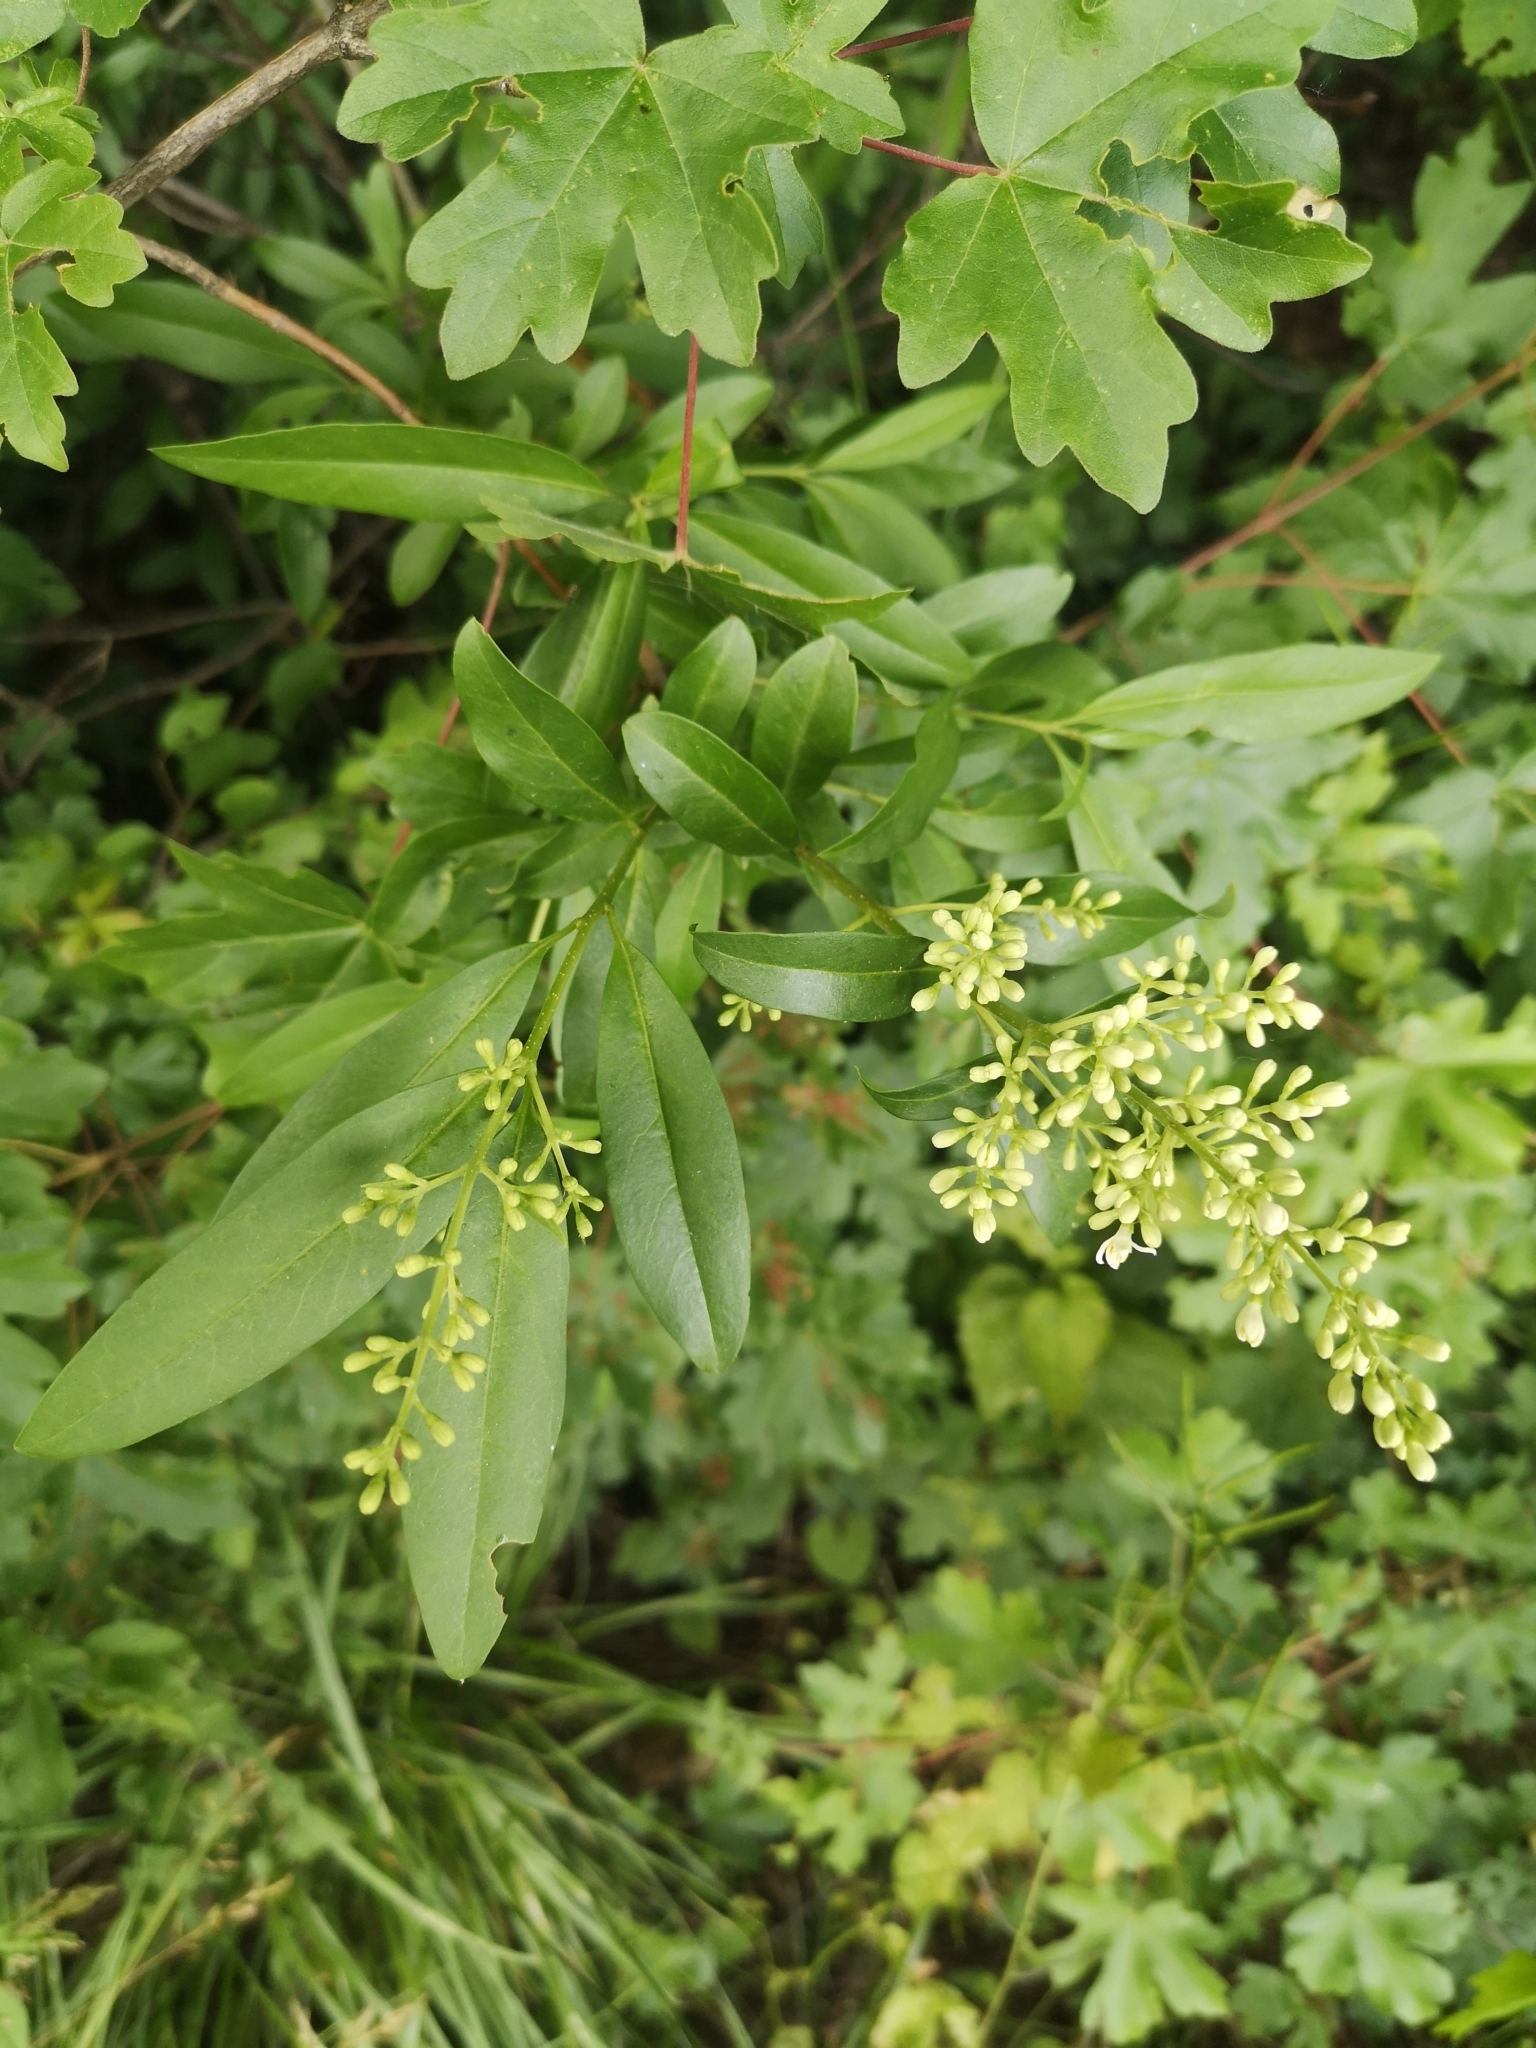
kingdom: Plantae
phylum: Tracheophyta
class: Magnoliopsida
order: Lamiales
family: Oleaceae
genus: Ligustrum
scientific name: Ligustrum vulgare
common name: Wild privet
